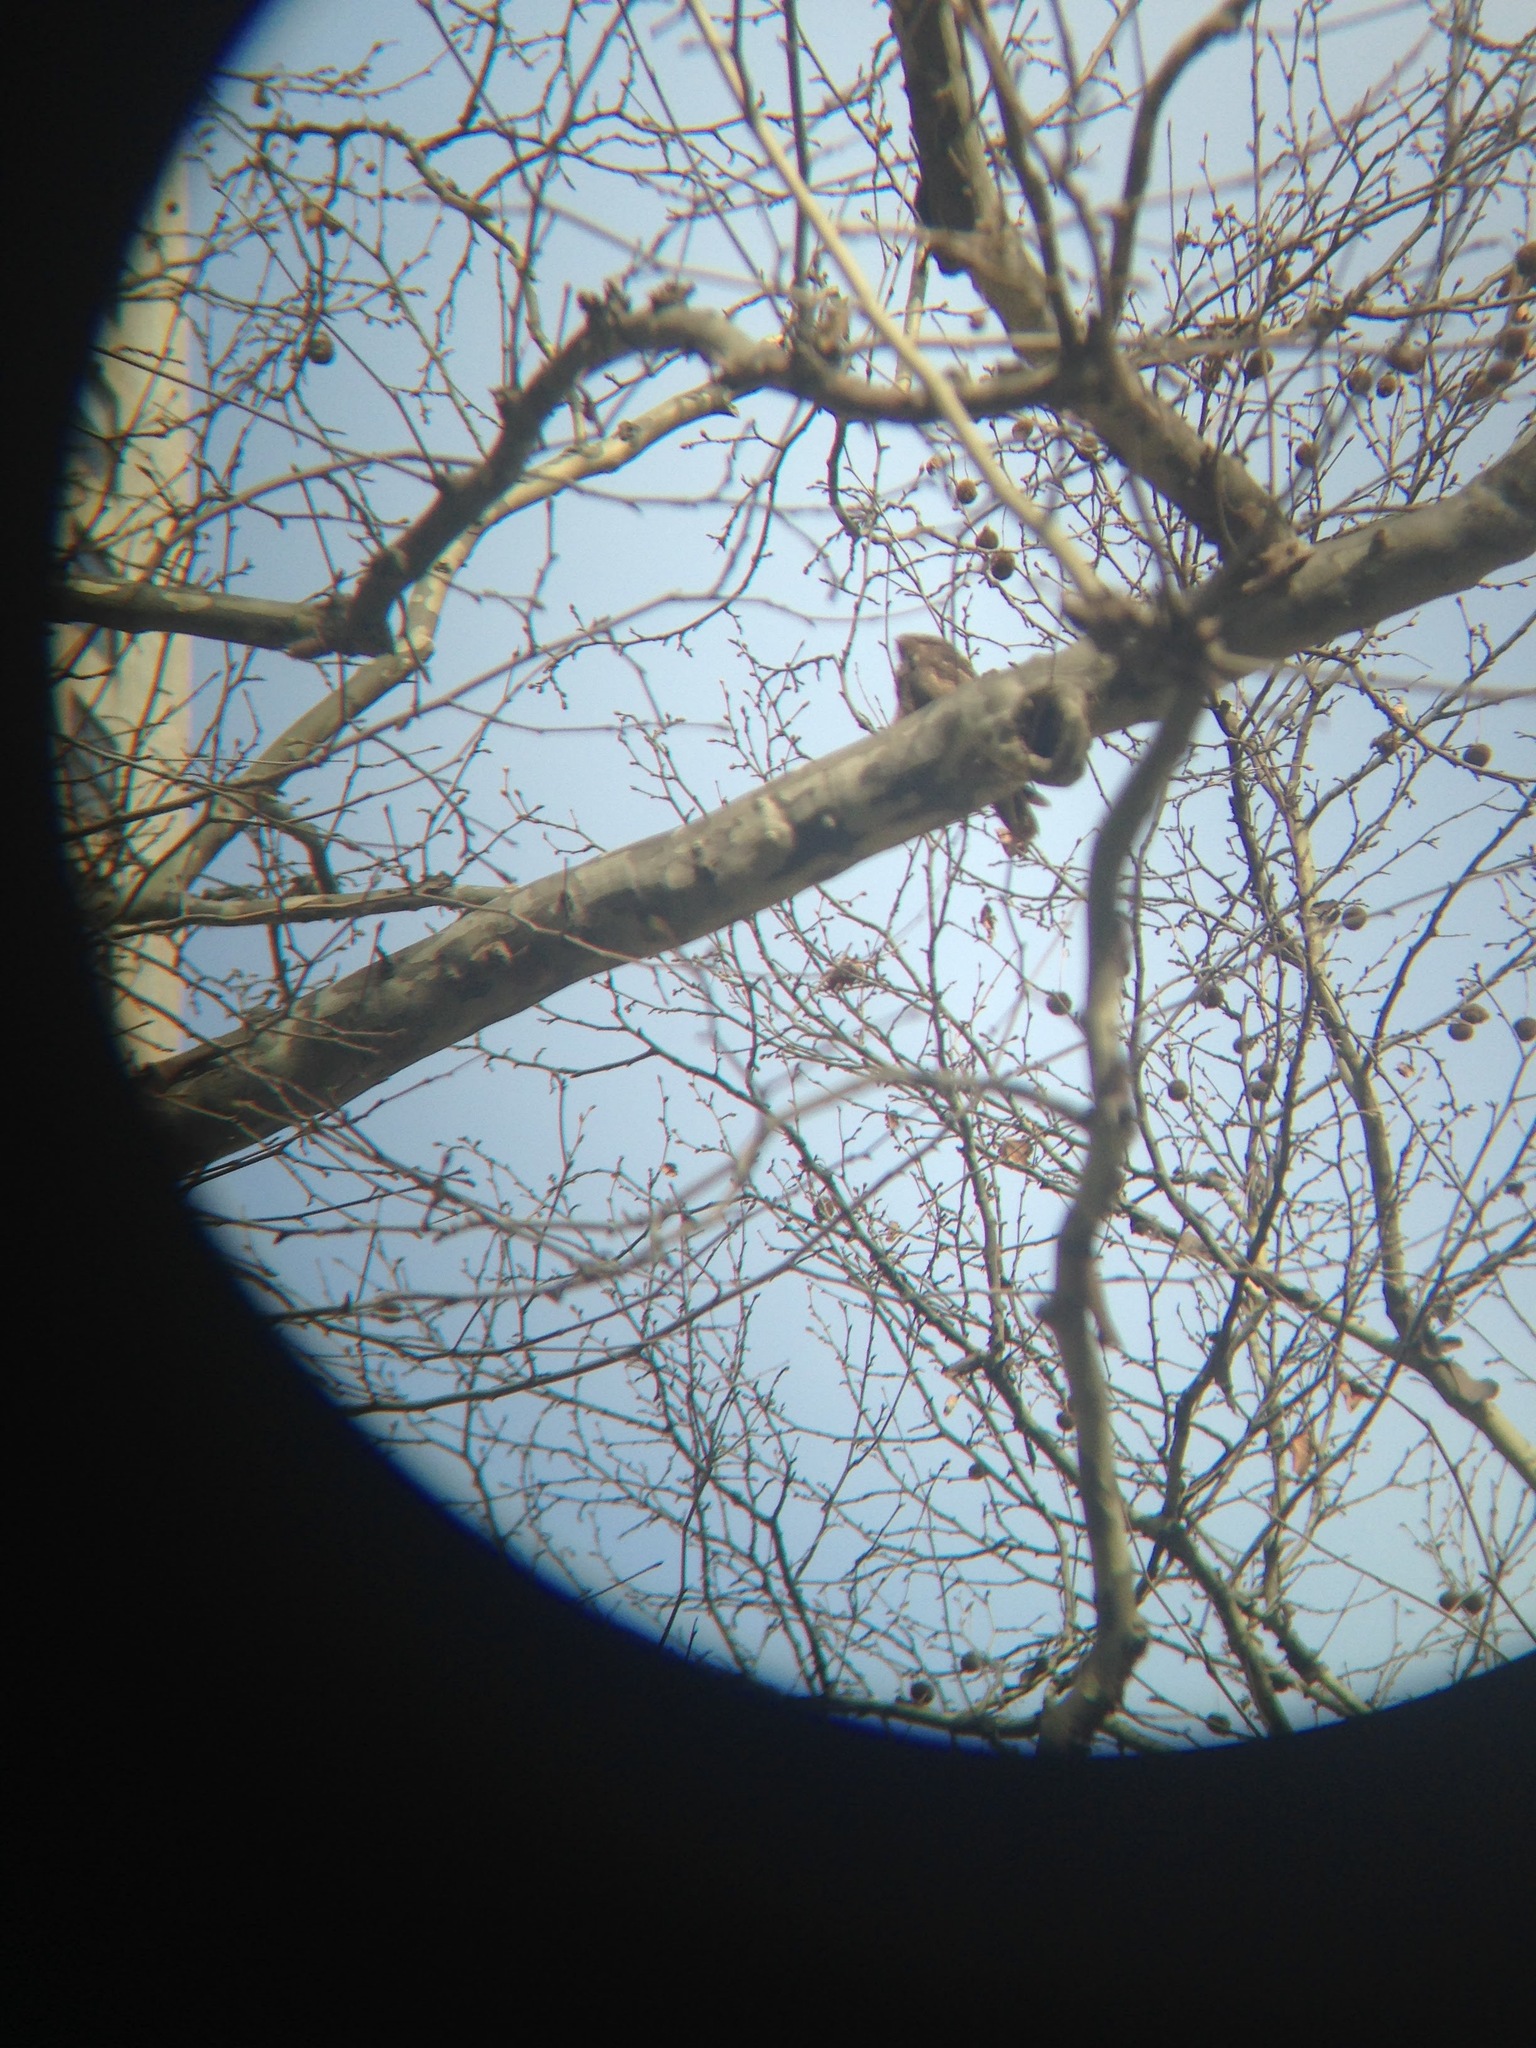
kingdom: Animalia
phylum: Chordata
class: Aves
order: Caprimulgiformes
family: Caprimulgidae
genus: Antrostomus
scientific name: Antrostomus carolinensis
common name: Chuck-will's-widow
